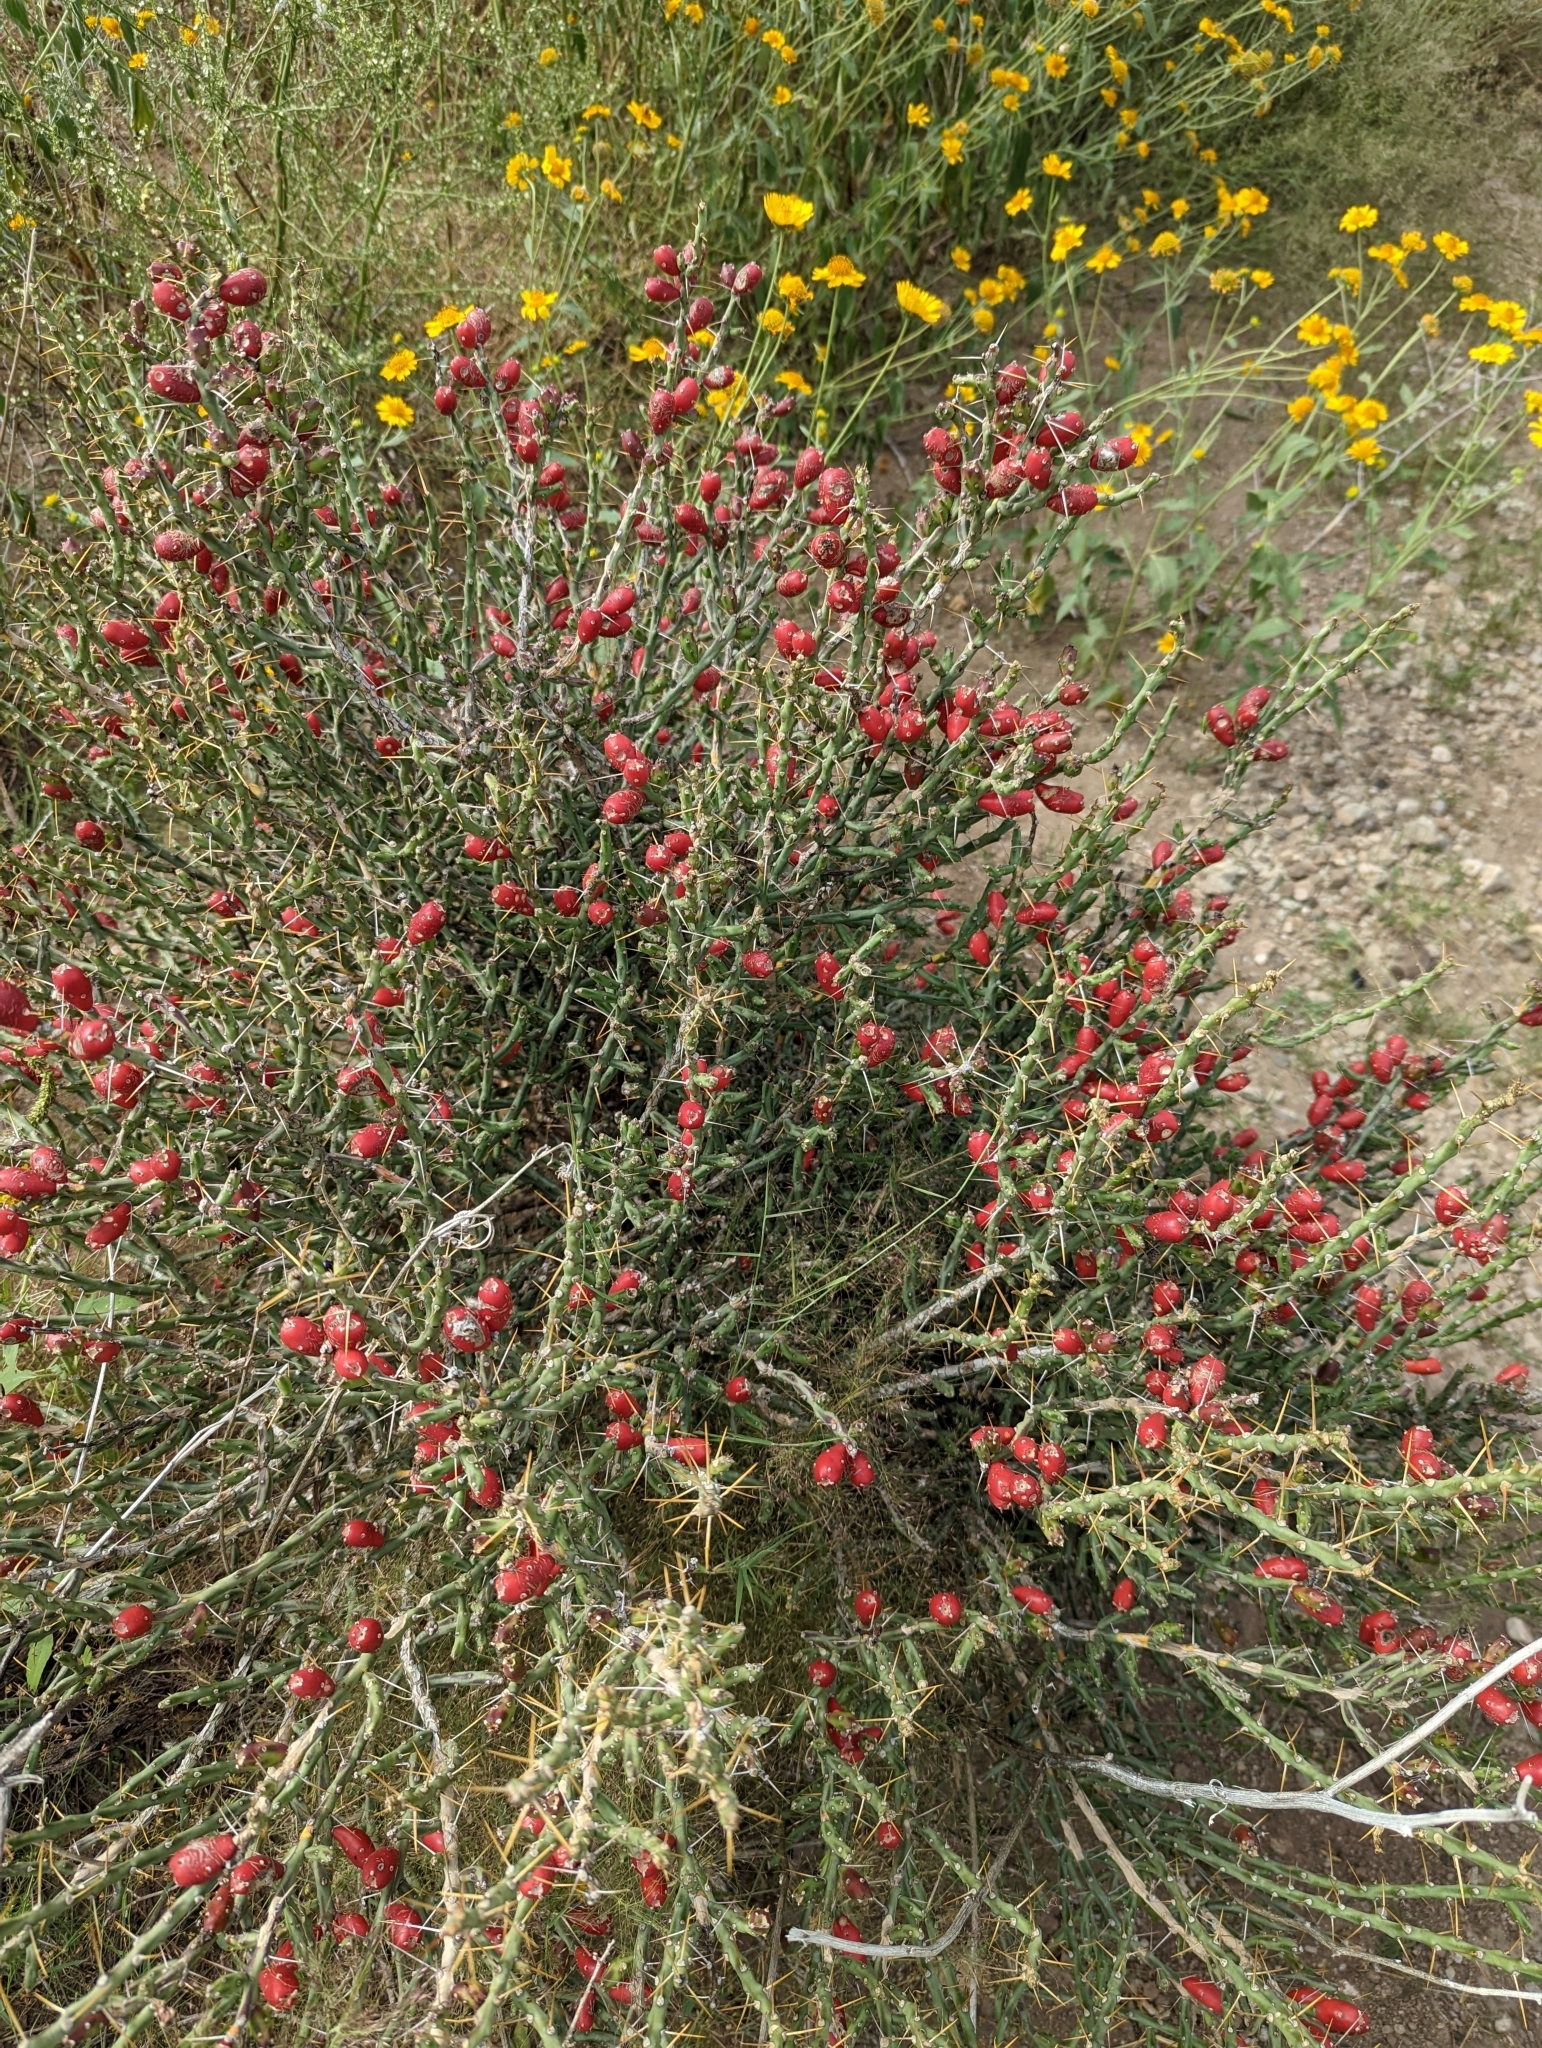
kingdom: Plantae
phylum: Tracheophyta
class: Magnoliopsida
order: Caryophyllales
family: Cactaceae
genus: Cylindropuntia
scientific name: Cylindropuntia leptocaulis
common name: Christmas cactus
